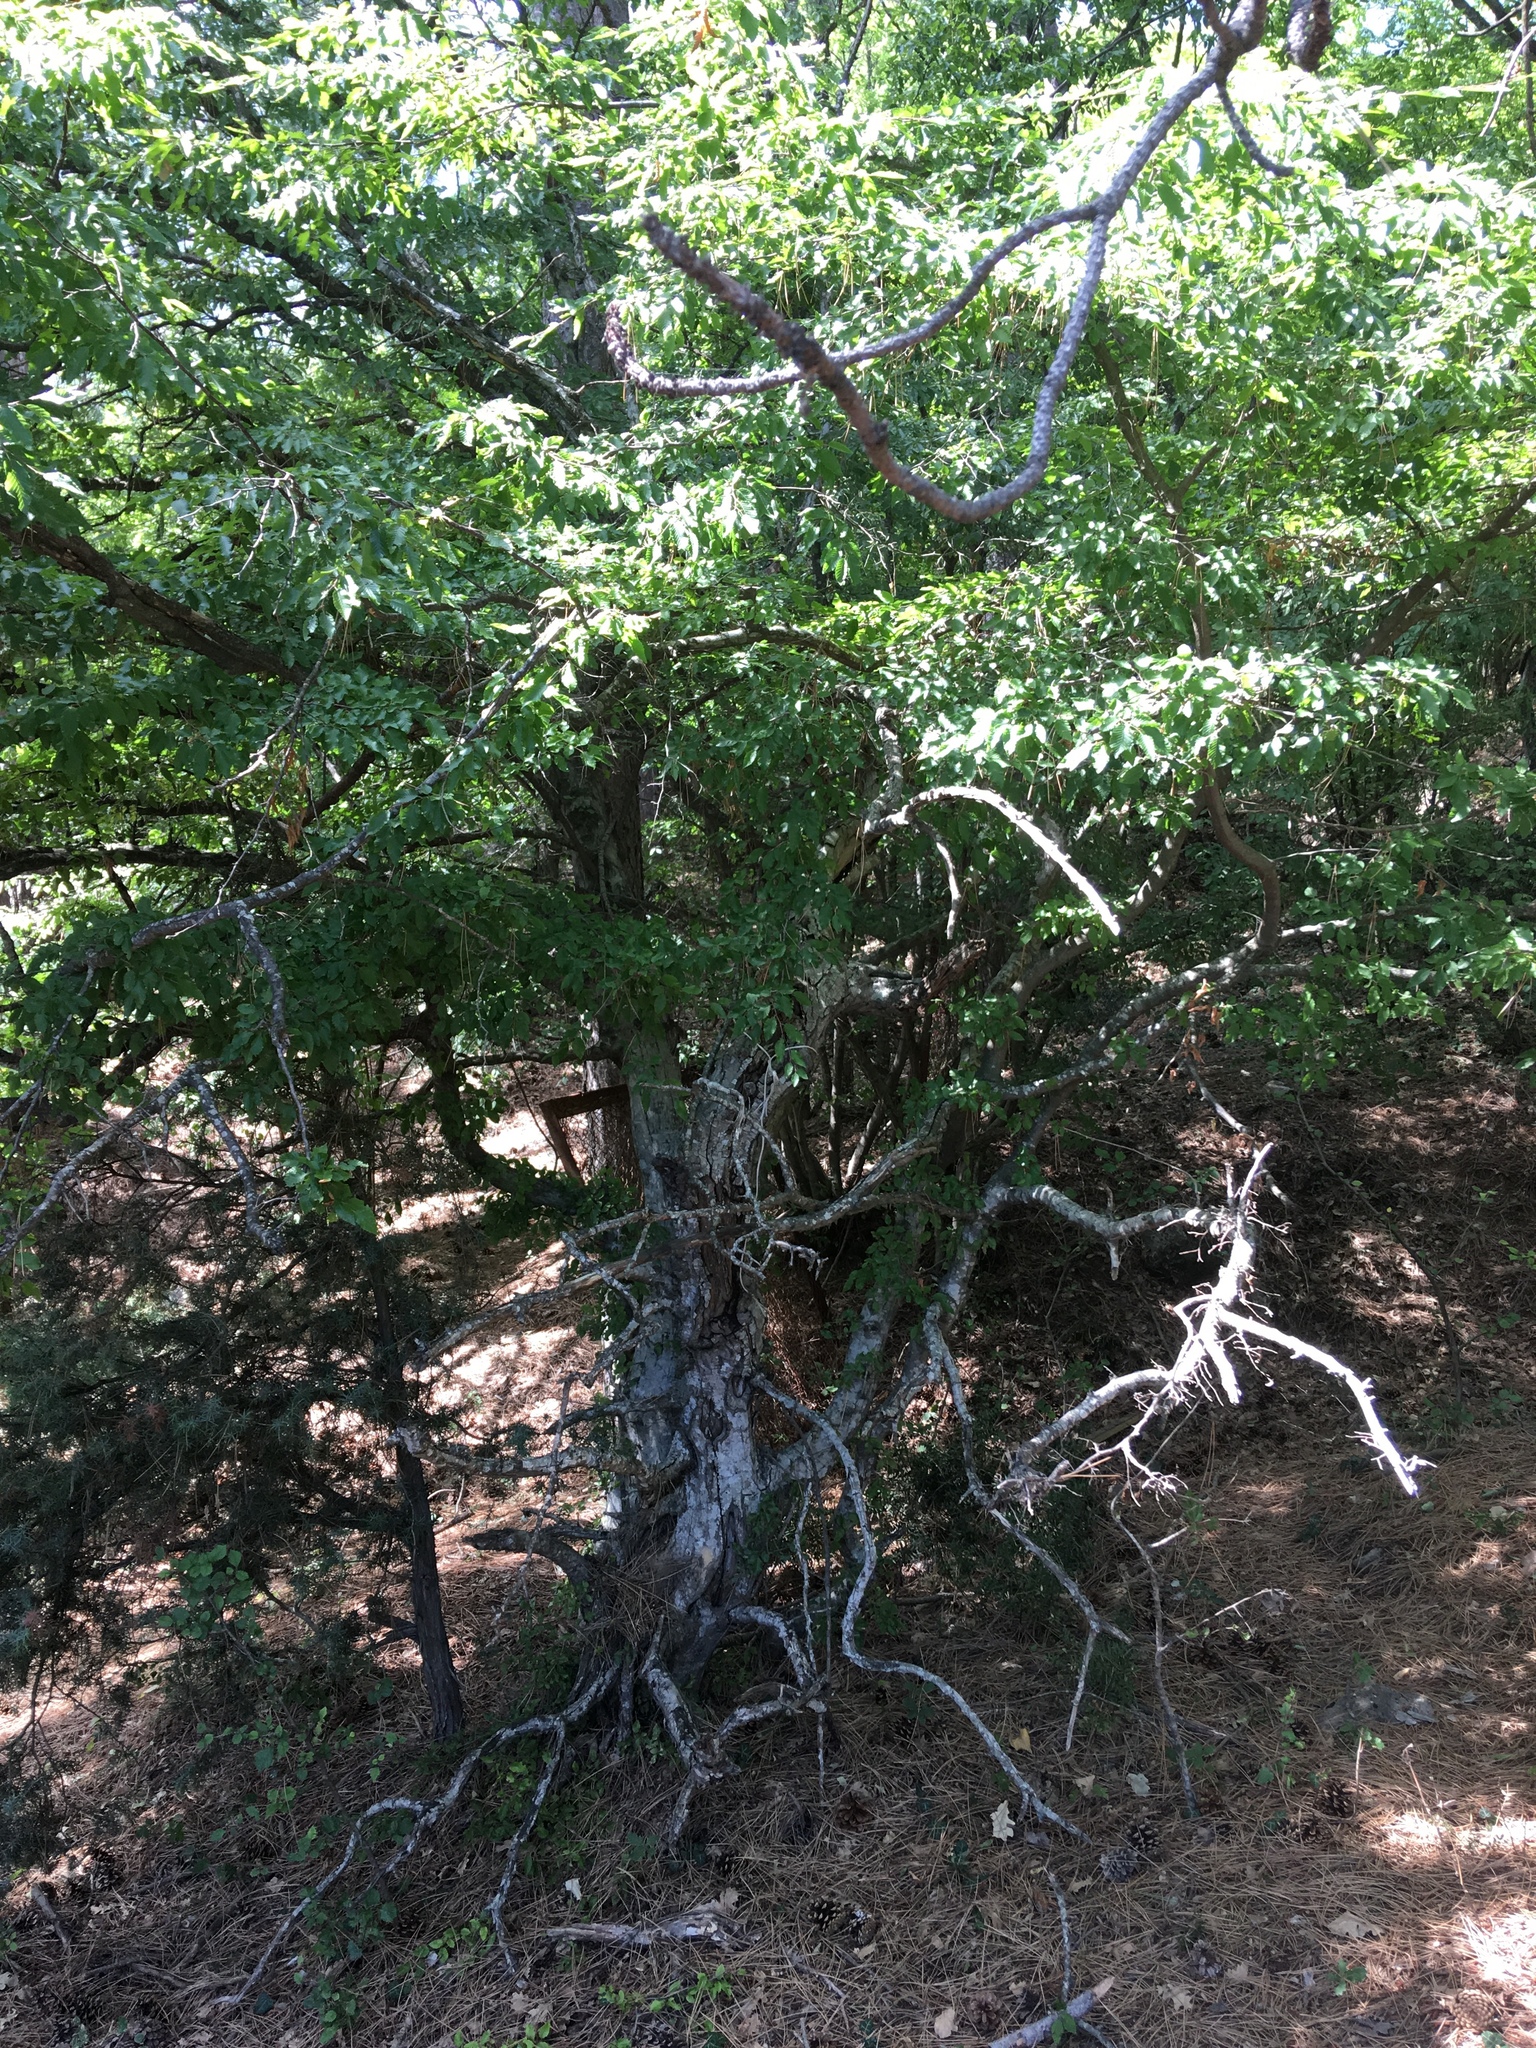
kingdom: Plantae
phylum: Tracheophyta
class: Magnoliopsida
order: Fagales
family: Betulaceae
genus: Carpinus
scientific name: Carpinus orientalis
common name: Eastern hornbeam
